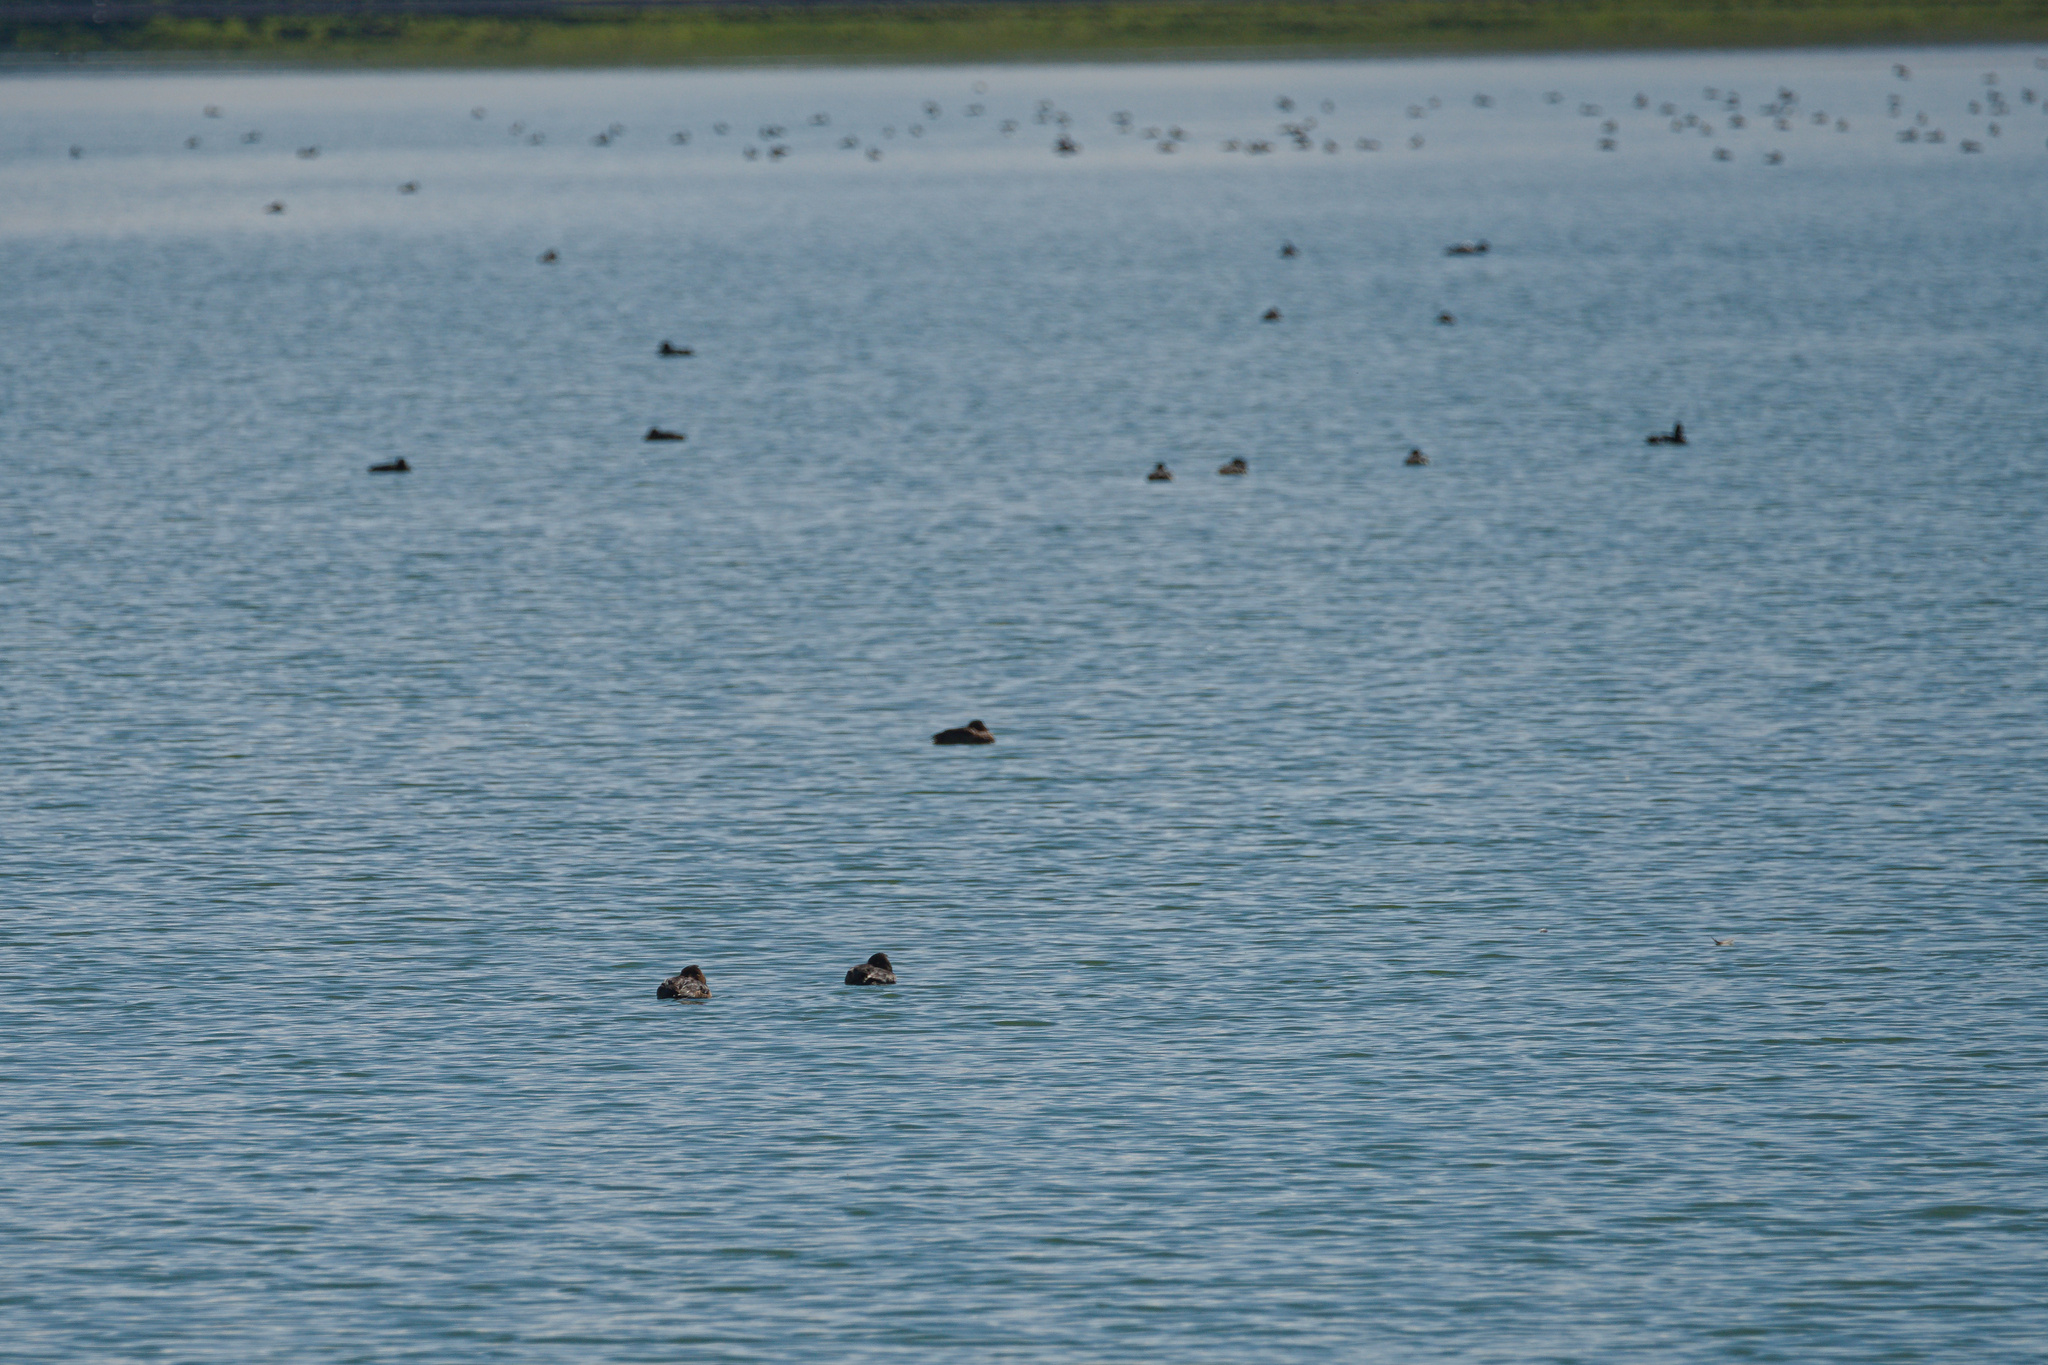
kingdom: Animalia
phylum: Chordata
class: Aves
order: Anseriformes
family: Anatidae
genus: Aythya
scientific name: Aythya fuligula
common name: Tufted duck
